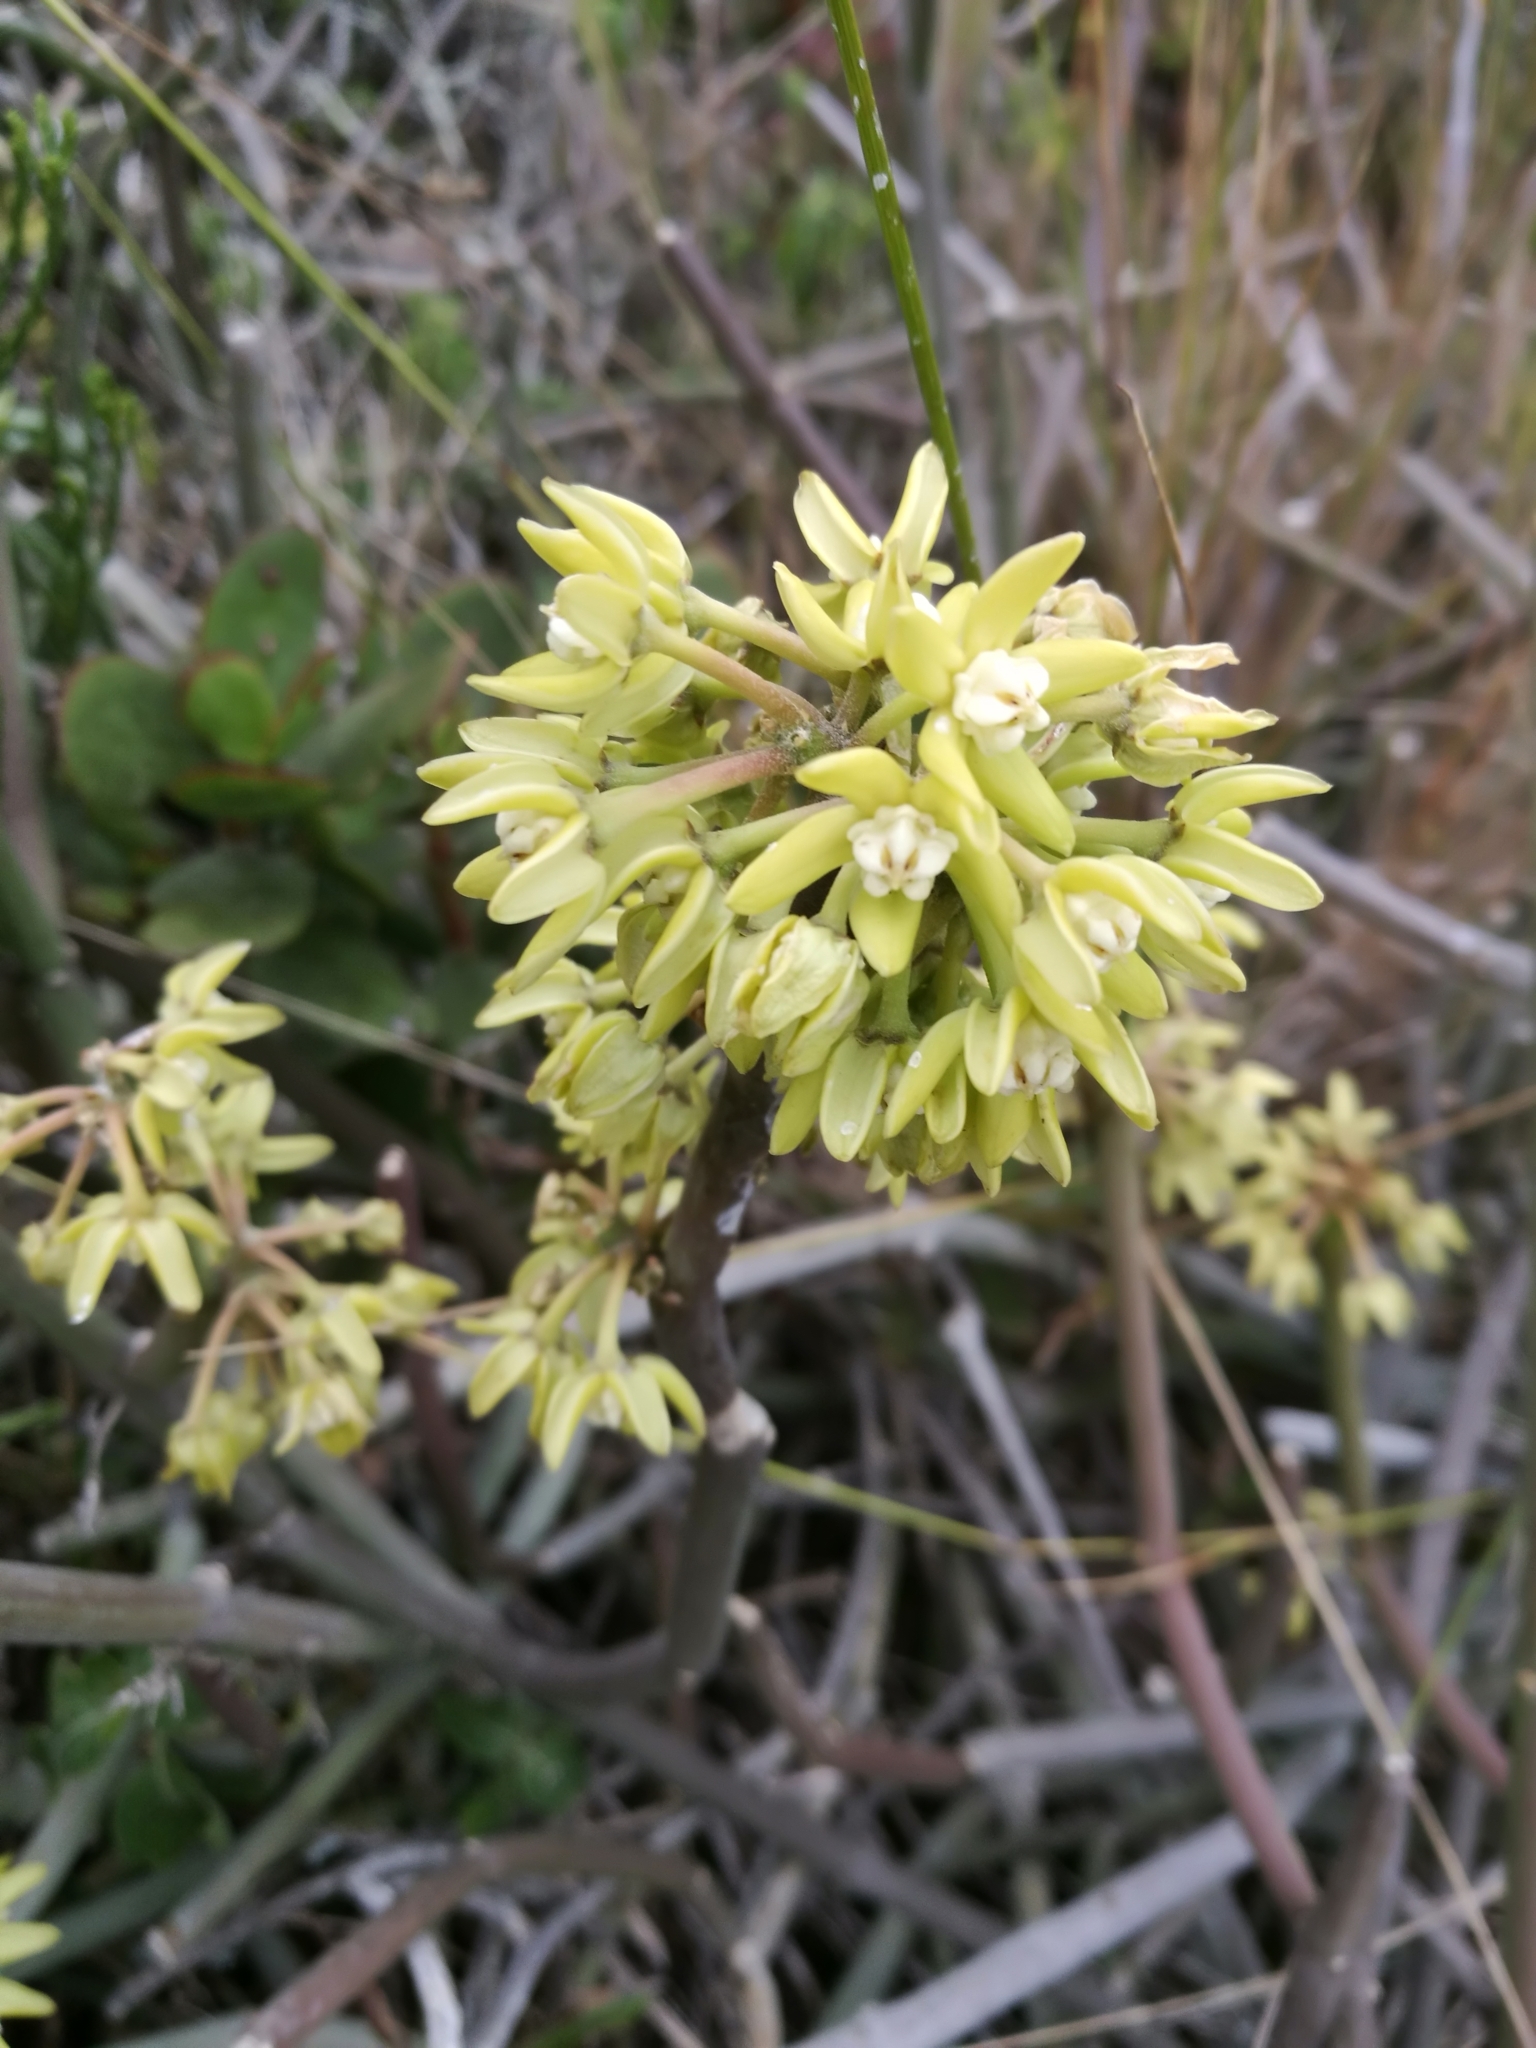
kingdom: Plantae
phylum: Tracheophyta
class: Magnoliopsida
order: Gentianales
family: Apocynaceae
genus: Cynanchum
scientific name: Cynanchum viminale
